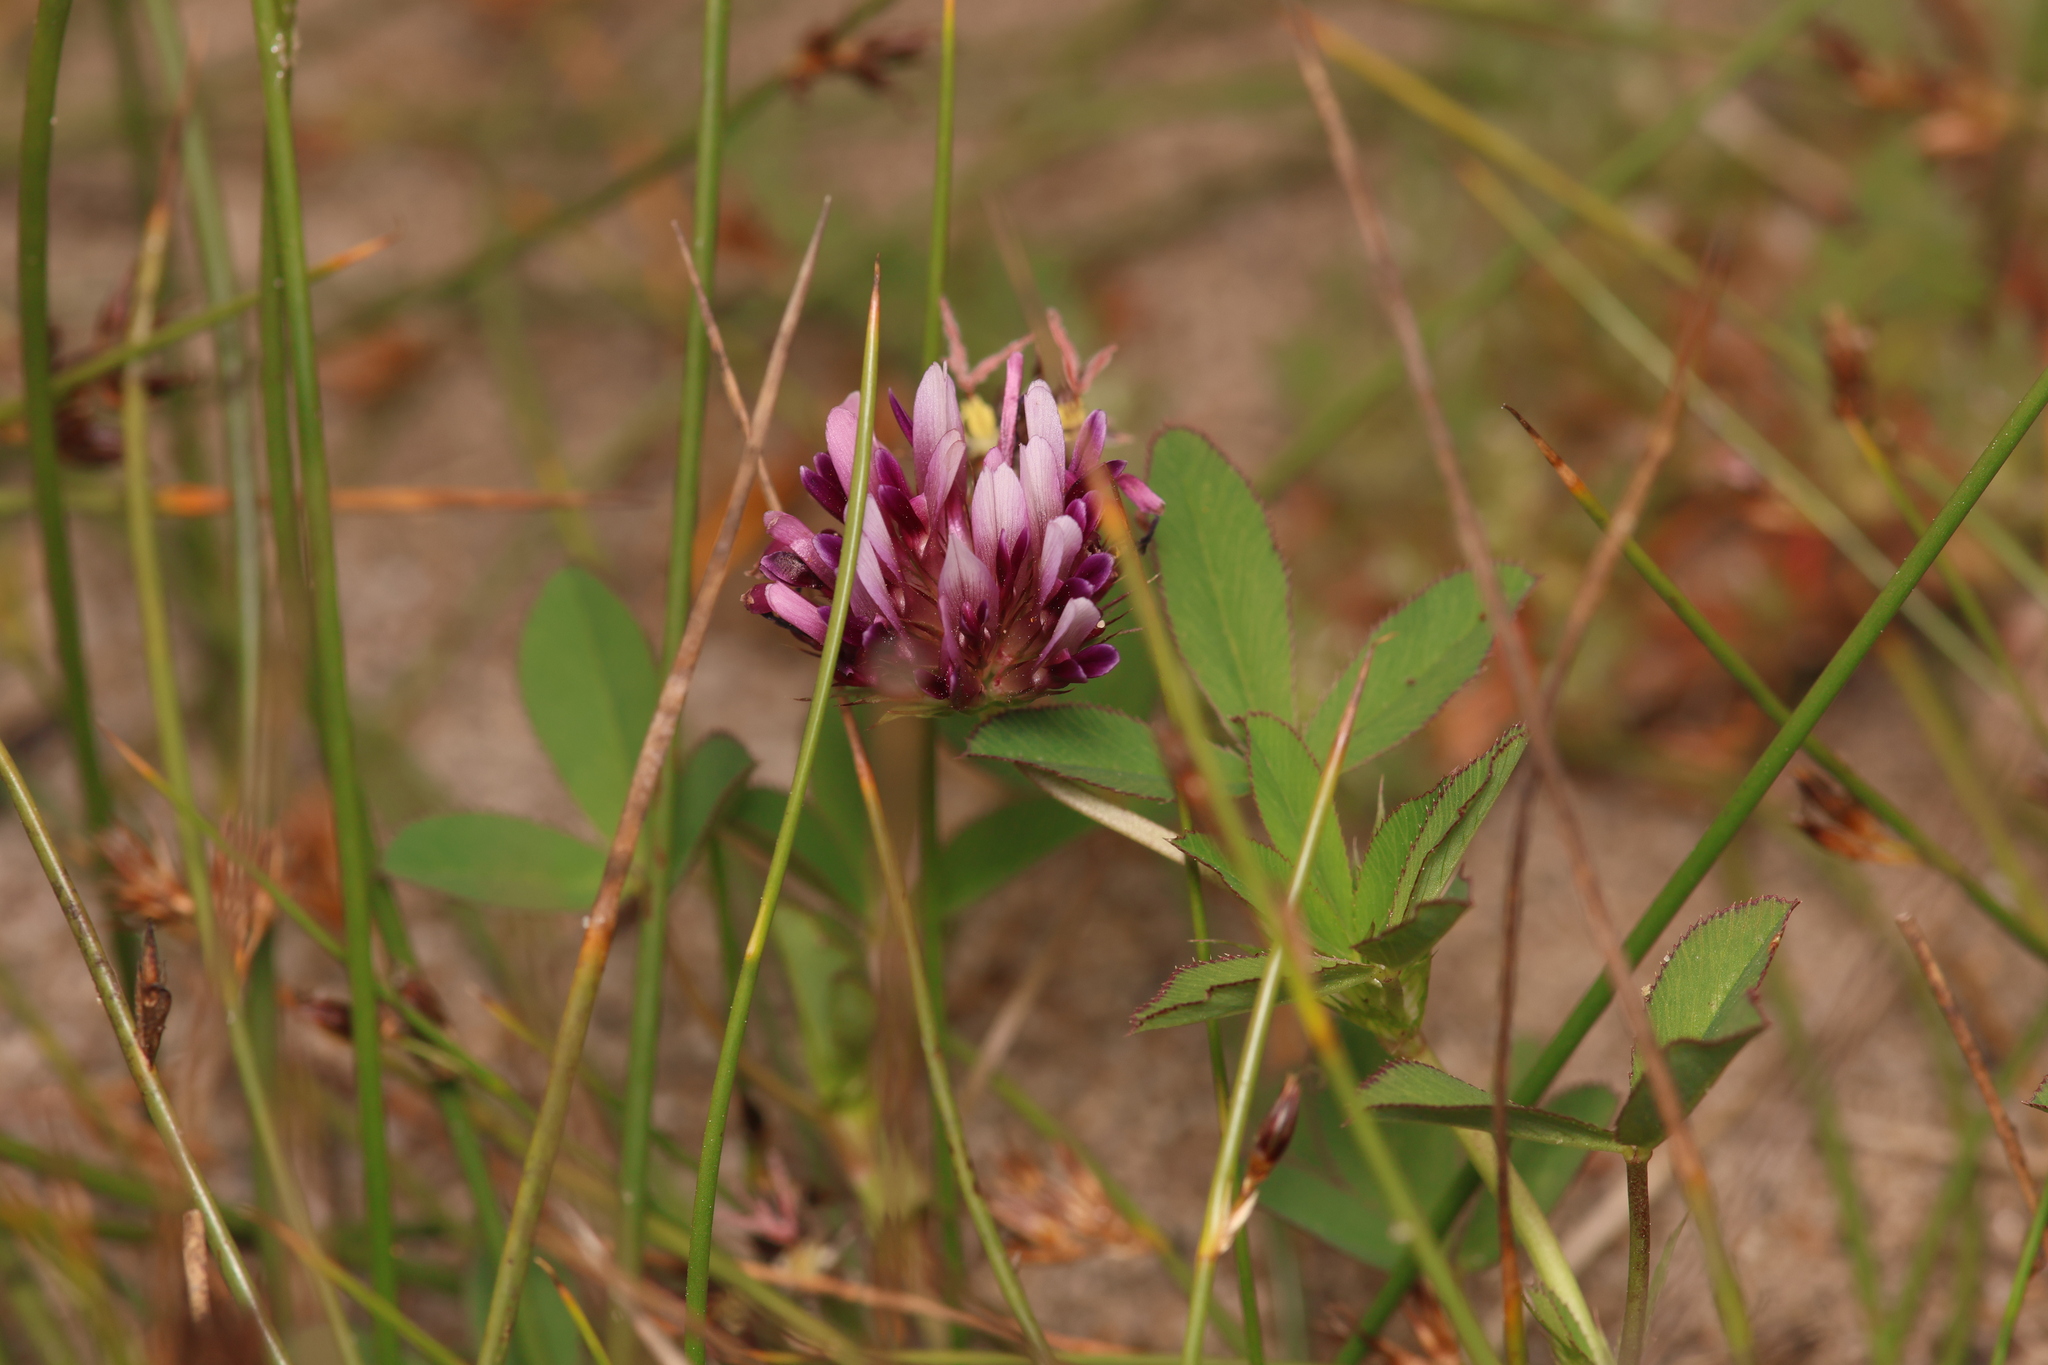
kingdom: Plantae
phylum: Tracheophyta
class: Magnoliopsida
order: Fabales
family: Fabaceae
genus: Trifolium
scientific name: Trifolium wormskioldii
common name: Springbank clover
